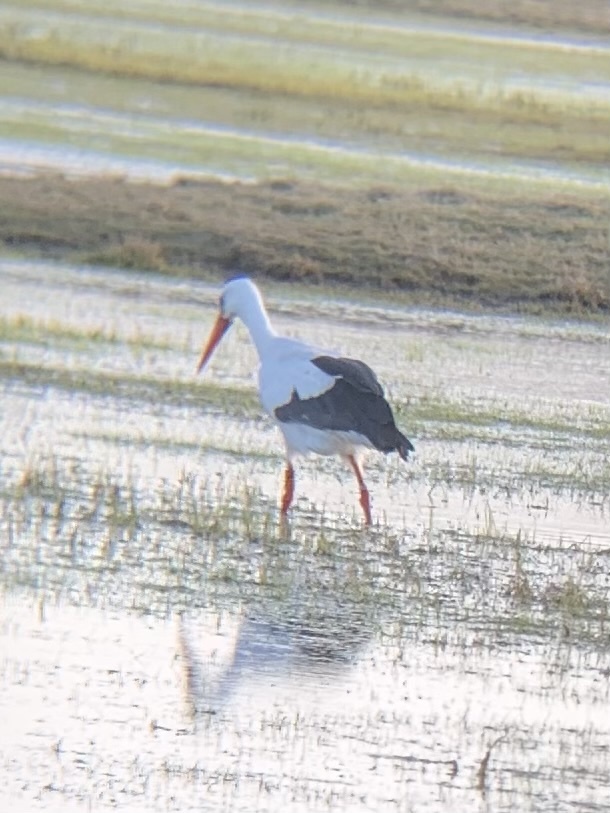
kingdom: Animalia
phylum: Chordata
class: Aves
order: Ciconiiformes
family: Ciconiidae
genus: Ciconia
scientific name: Ciconia ciconia
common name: White stork
